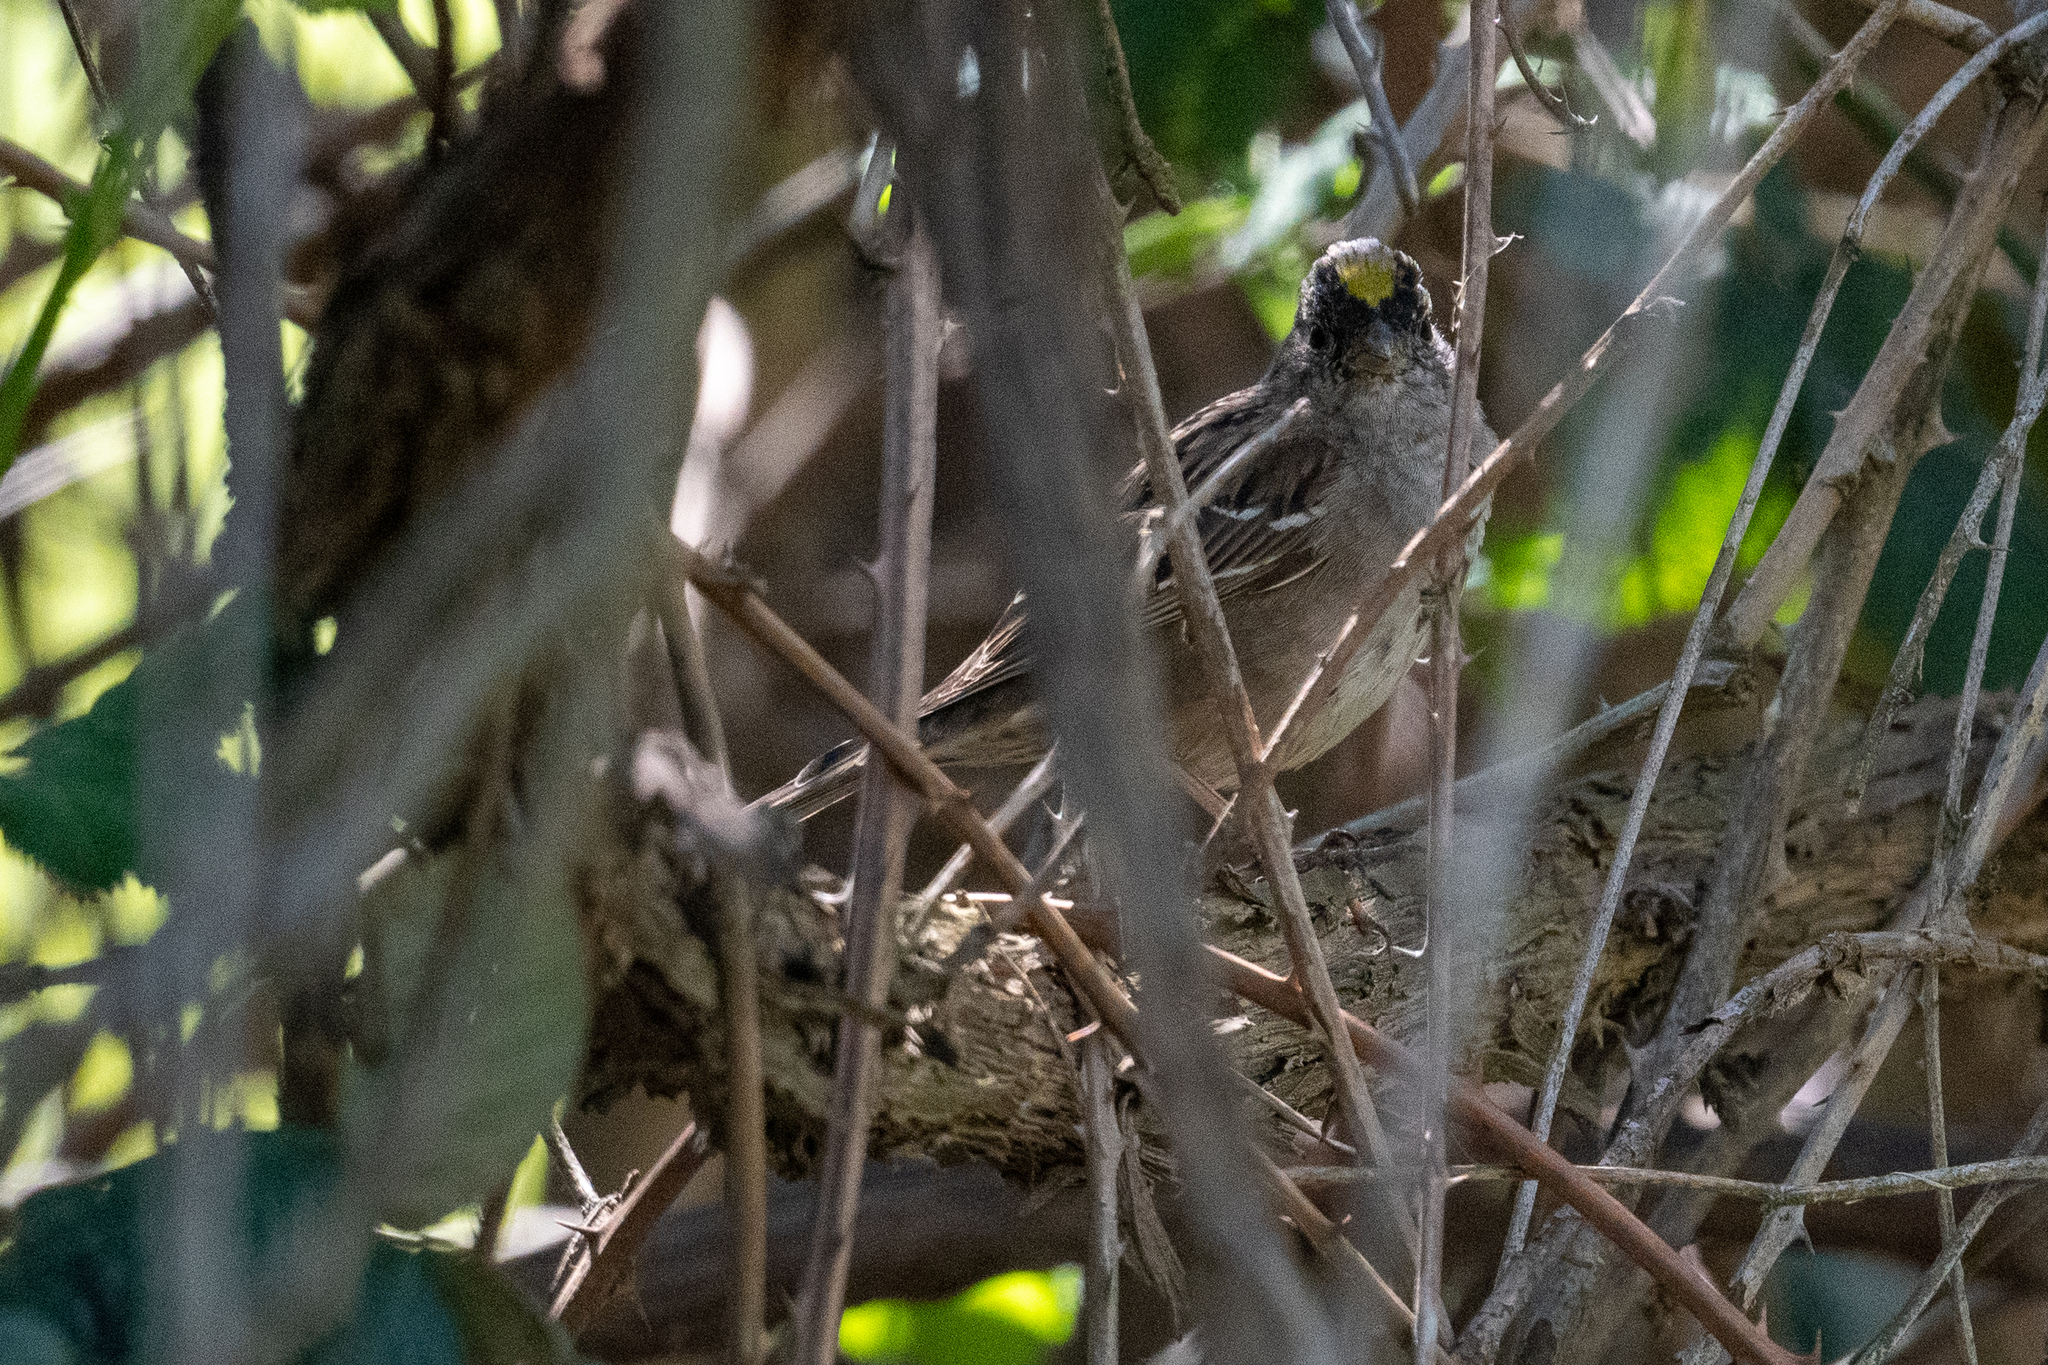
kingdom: Animalia
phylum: Chordata
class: Aves
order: Passeriformes
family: Passerellidae
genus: Zonotrichia
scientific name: Zonotrichia atricapilla
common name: Golden-crowned sparrow
